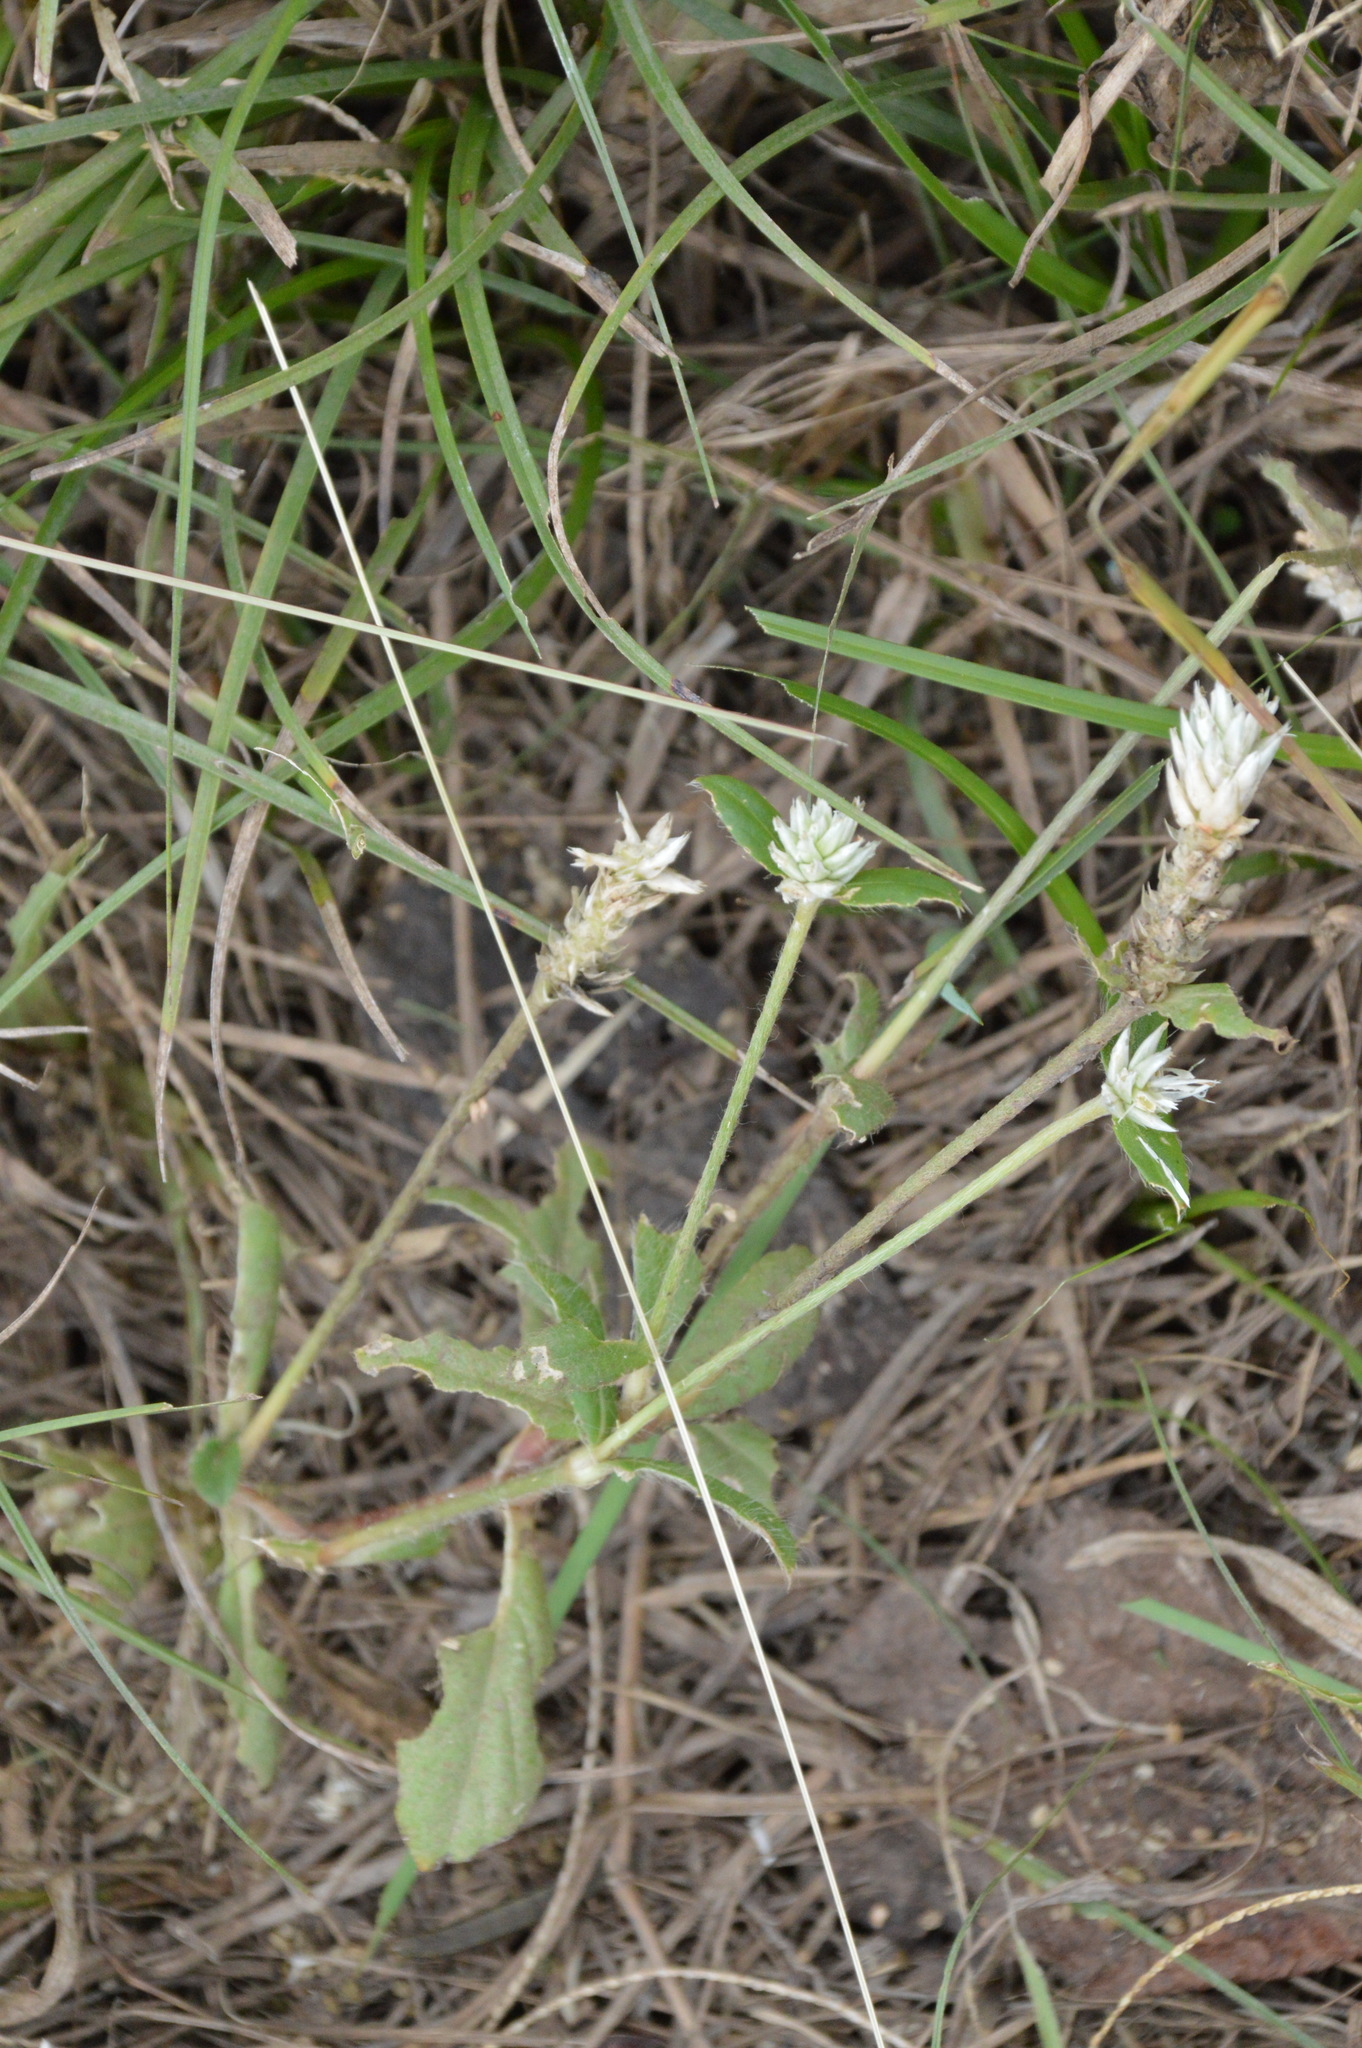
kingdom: Plantae
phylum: Tracheophyta
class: Magnoliopsida
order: Caryophyllales
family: Amaranthaceae
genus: Gomphrena
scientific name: Gomphrena serrata
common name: Arrasa con todo
